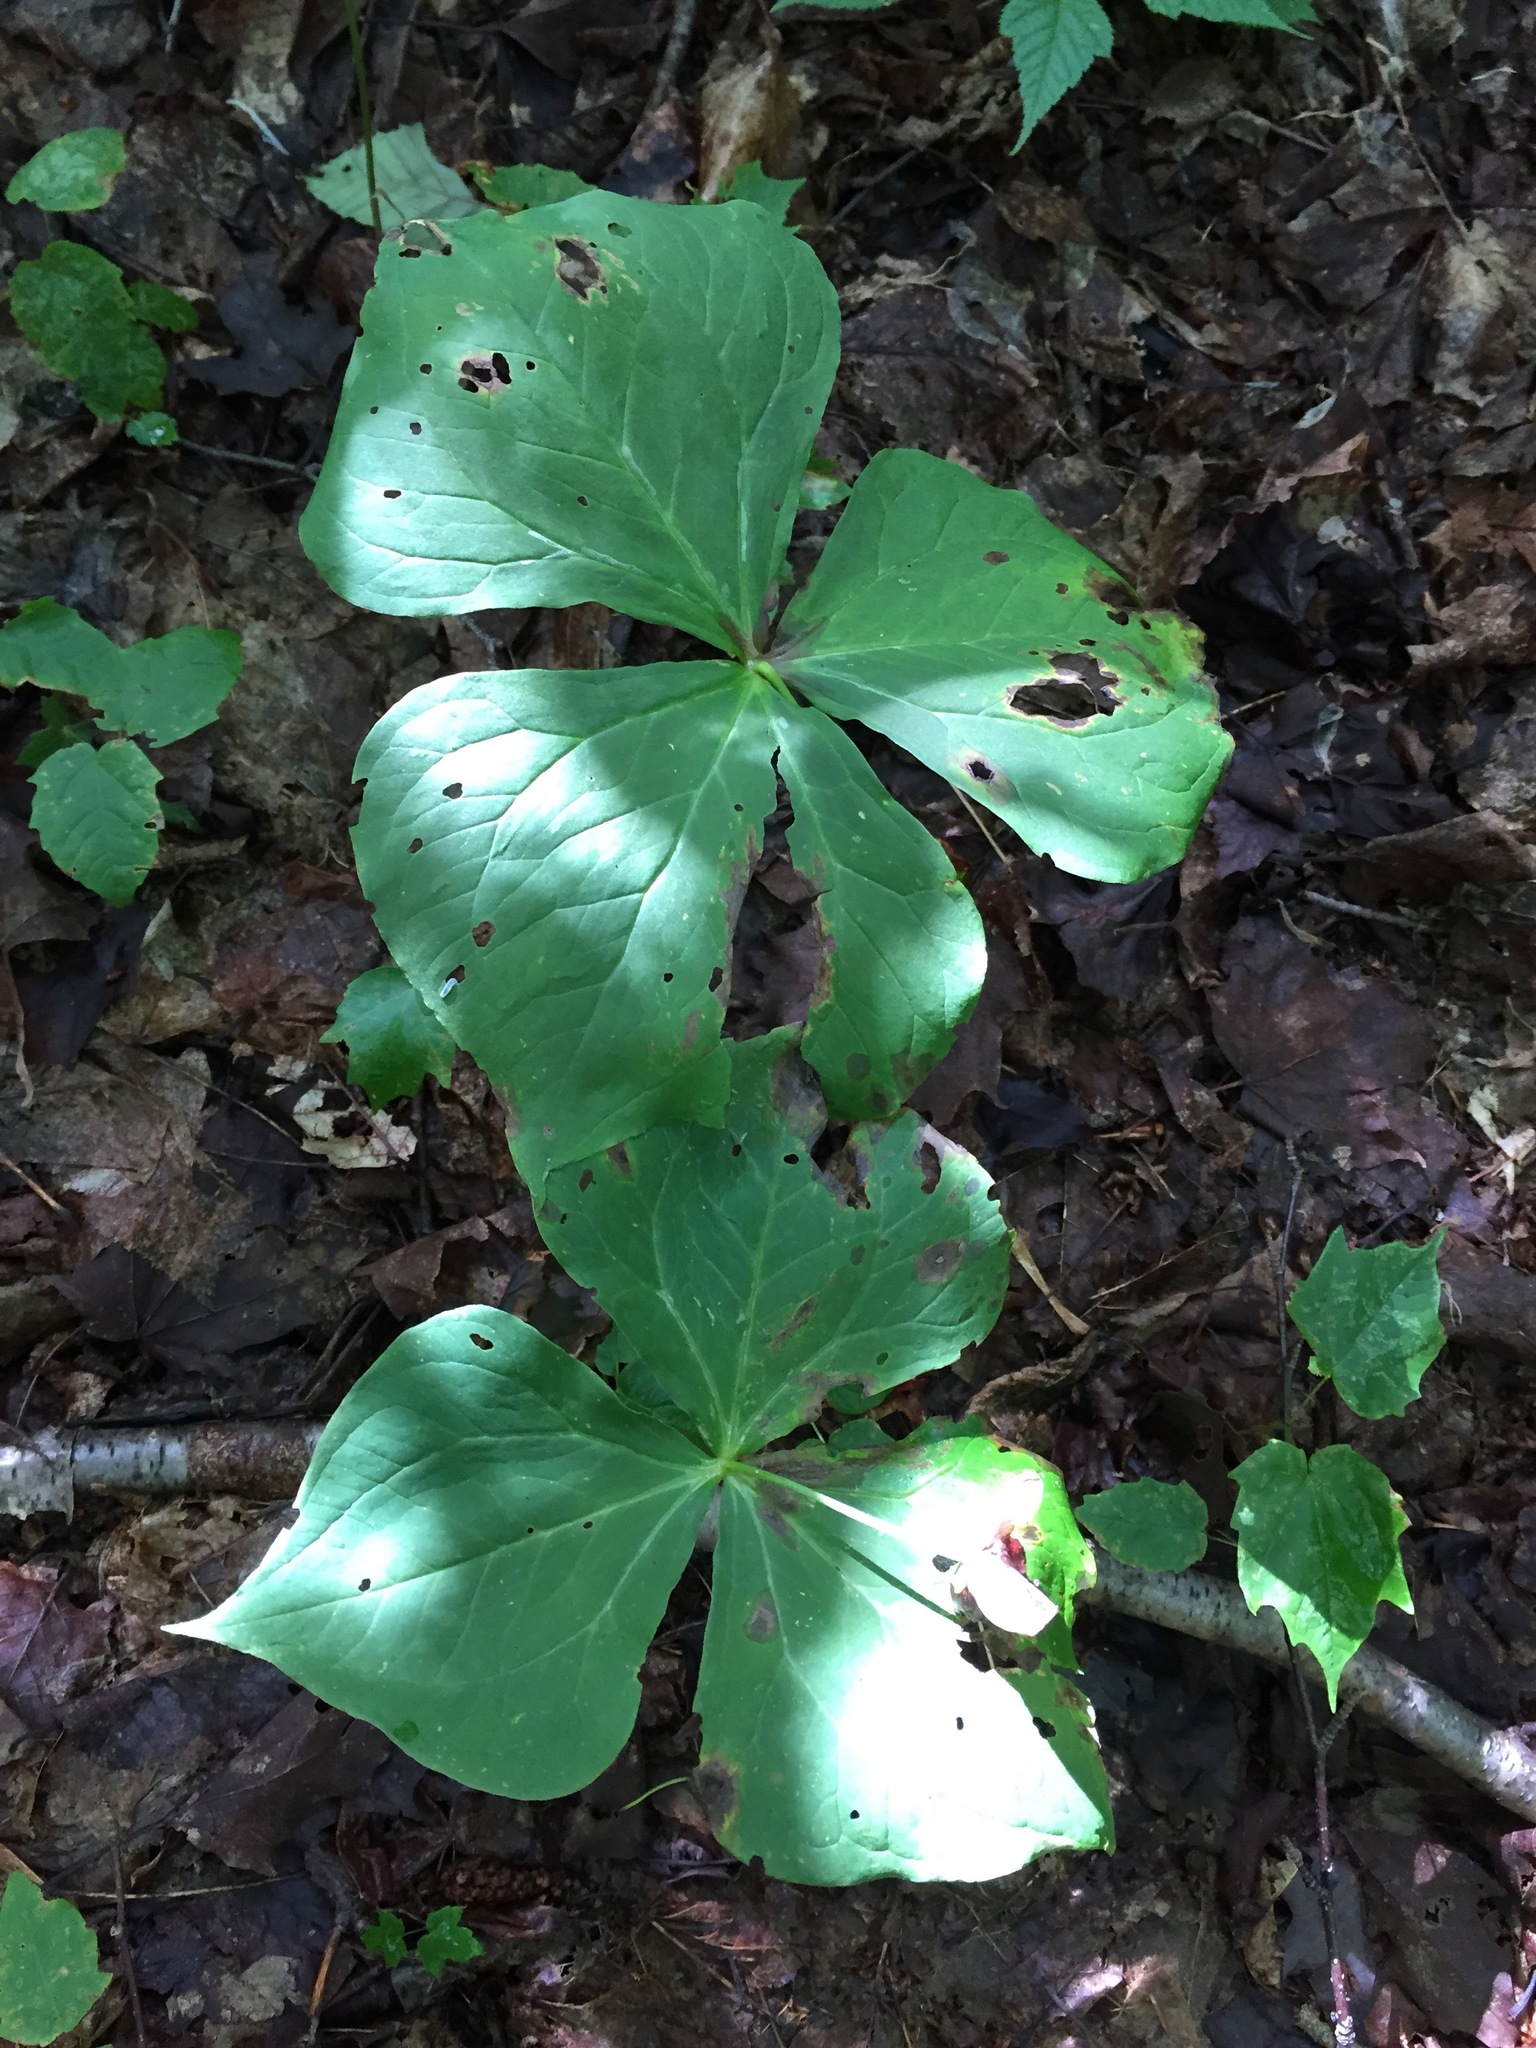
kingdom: Plantae
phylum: Tracheophyta
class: Liliopsida
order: Liliales
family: Melanthiaceae
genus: Trillium
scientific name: Trillium erectum
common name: Purple trillium
